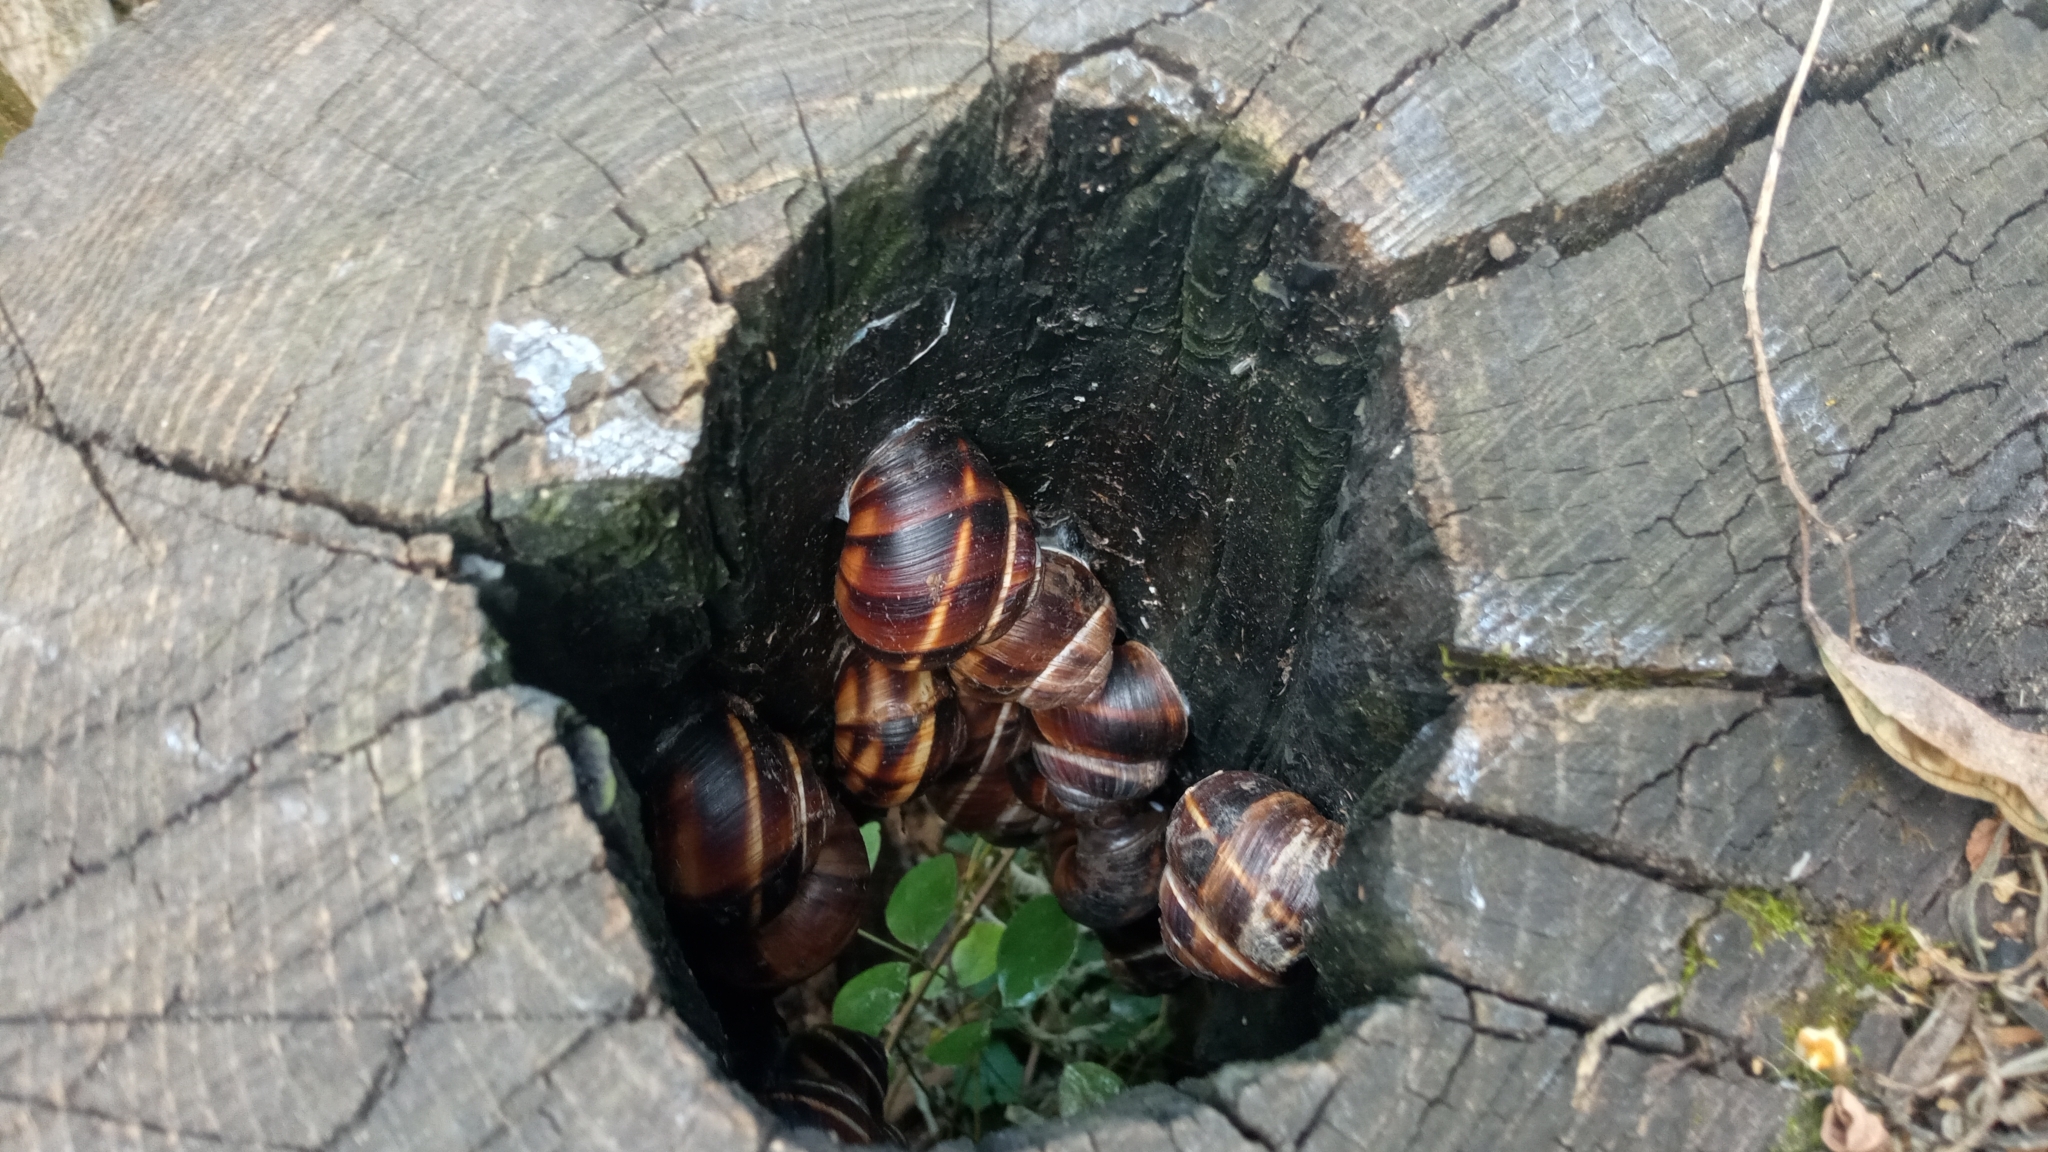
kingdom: Animalia
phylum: Mollusca
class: Gastropoda
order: Stylommatophora
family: Helicidae
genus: Helix
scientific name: Helix lucorum
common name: Turkish snail
